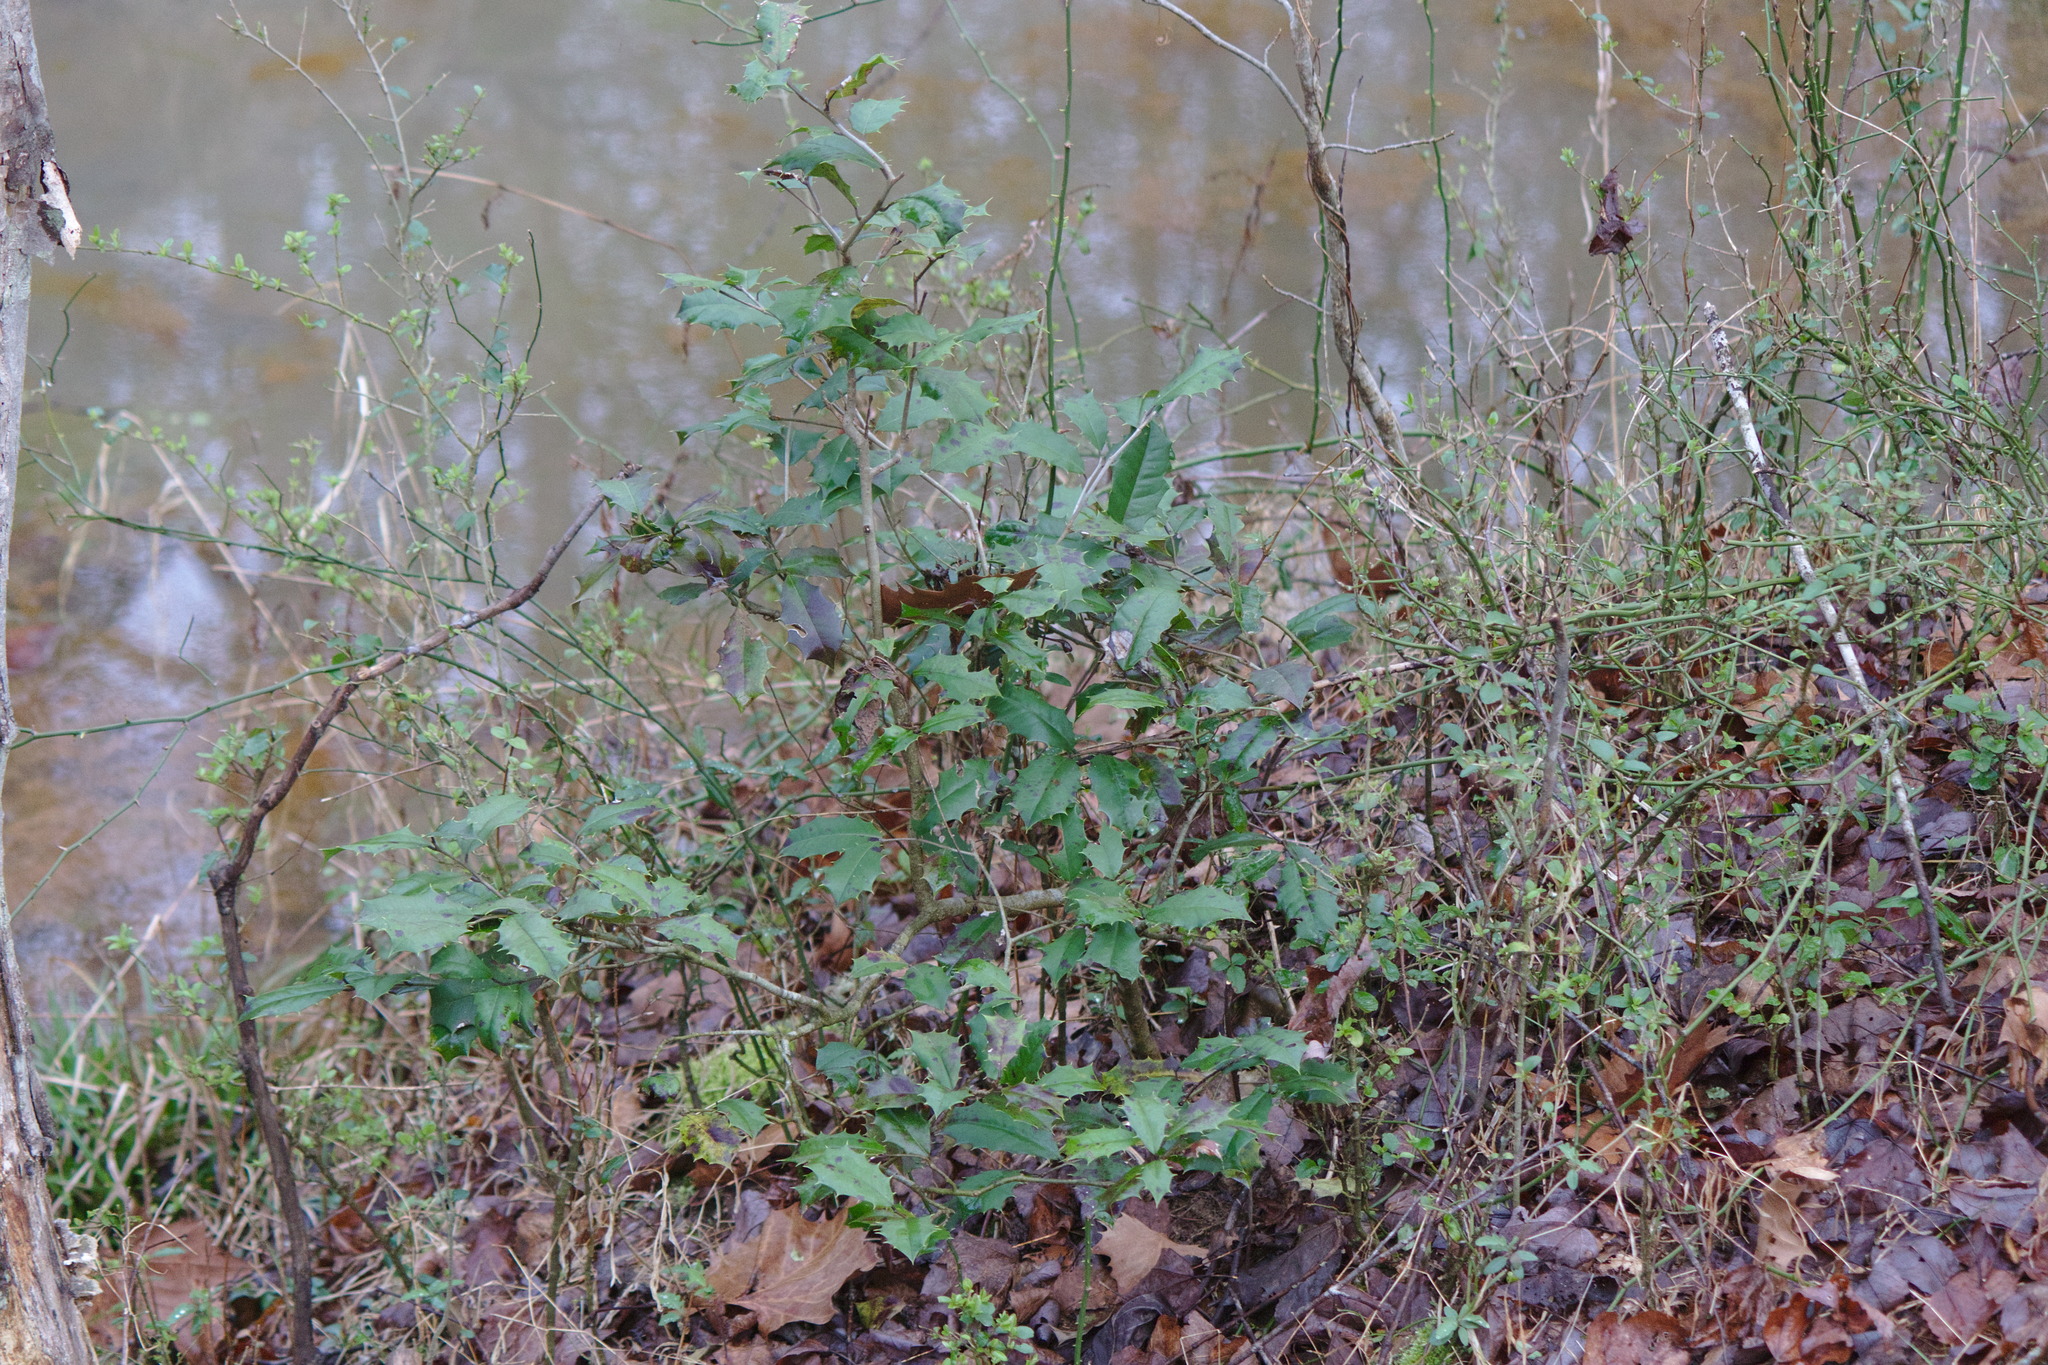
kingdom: Plantae
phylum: Tracheophyta
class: Magnoliopsida
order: Aquifoliales
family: Aquifoliaceae
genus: Ilex
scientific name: Ilex opaca
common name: American holly
